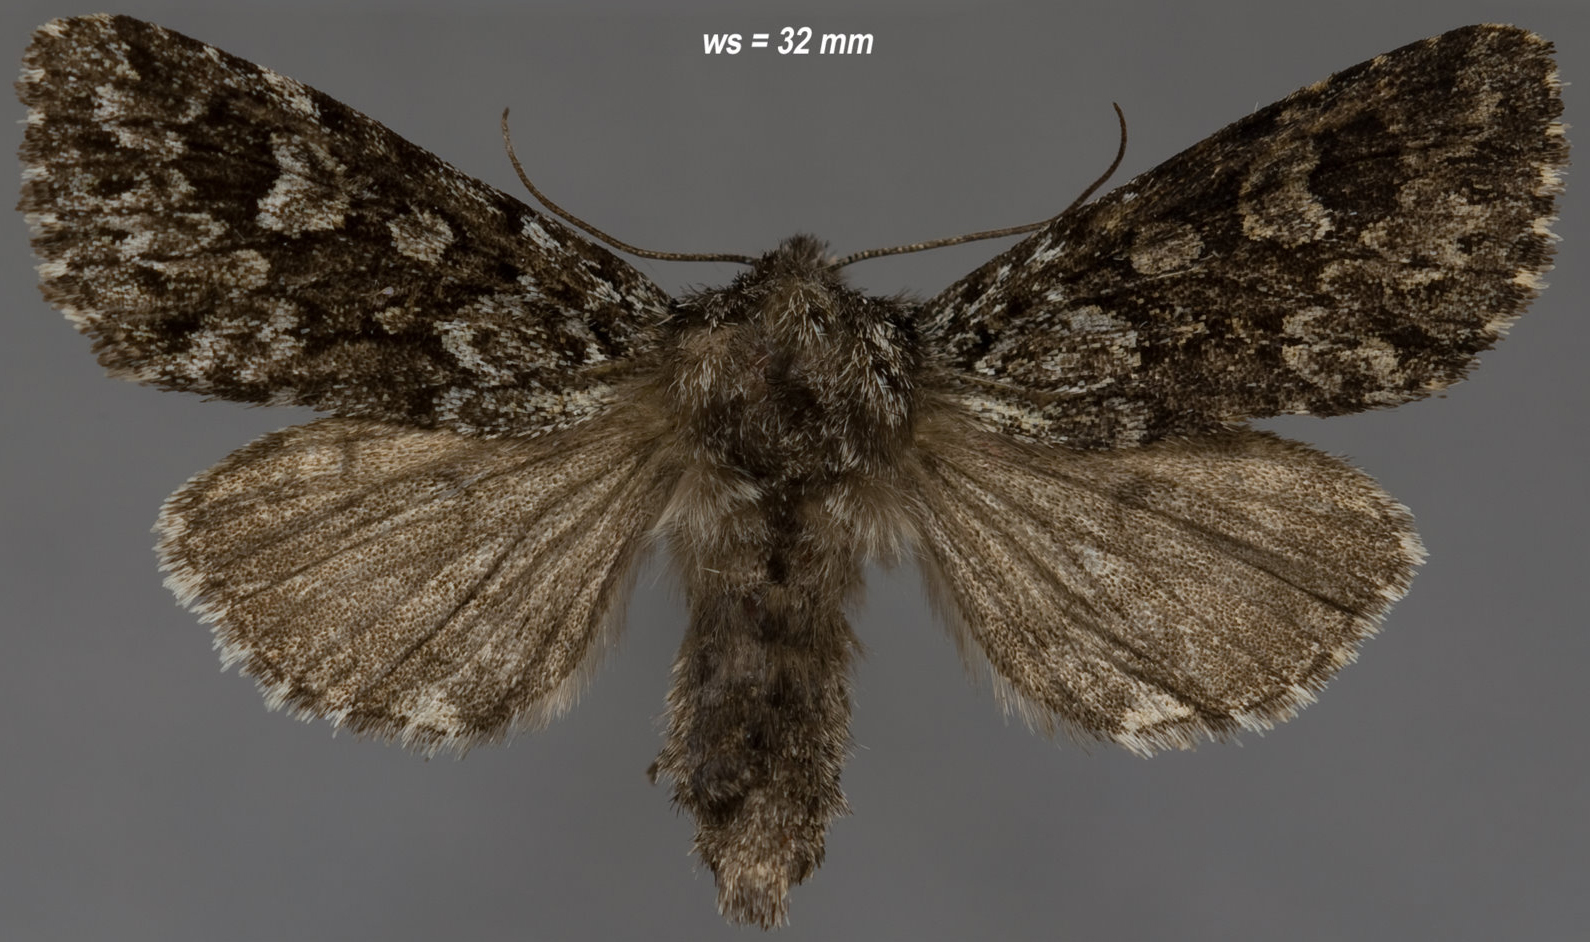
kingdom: Animalia
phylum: Arthropoda
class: Insecta
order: Lepidoptera
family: Noctuidae
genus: Lasionycta
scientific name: Lasionycta taigata
